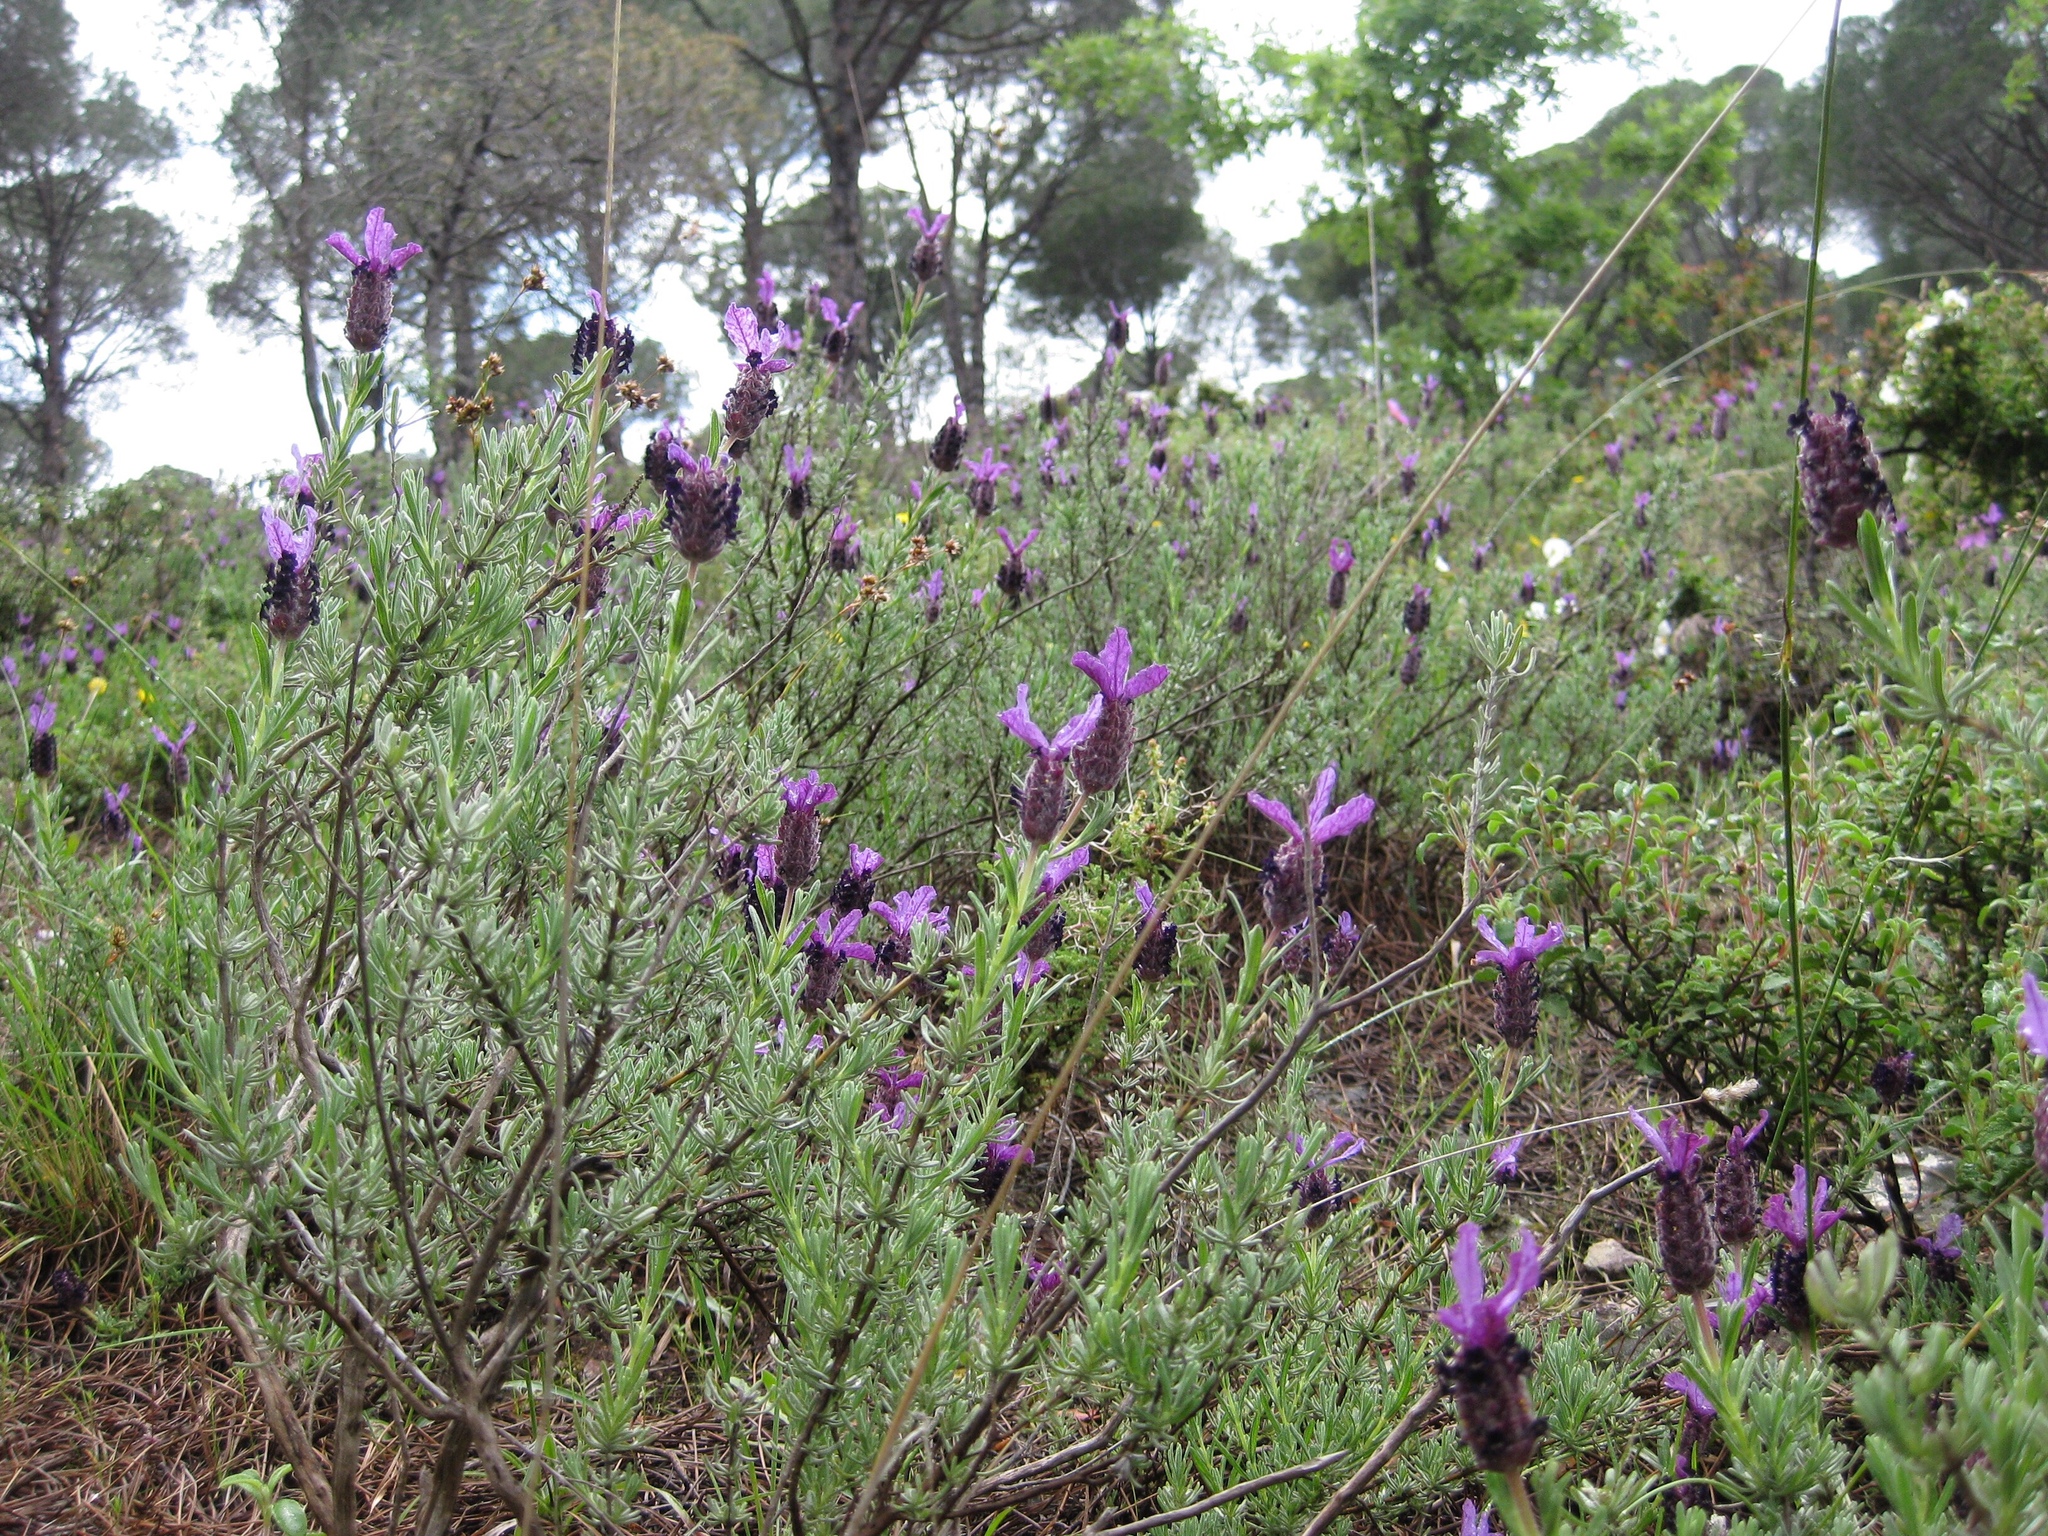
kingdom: Plantae
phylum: Tracheophyta
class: Magnoliopsida
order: Lamiales
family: Lamiaceae
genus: Lavandula
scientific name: Lavandula stoechas
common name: French lavender
